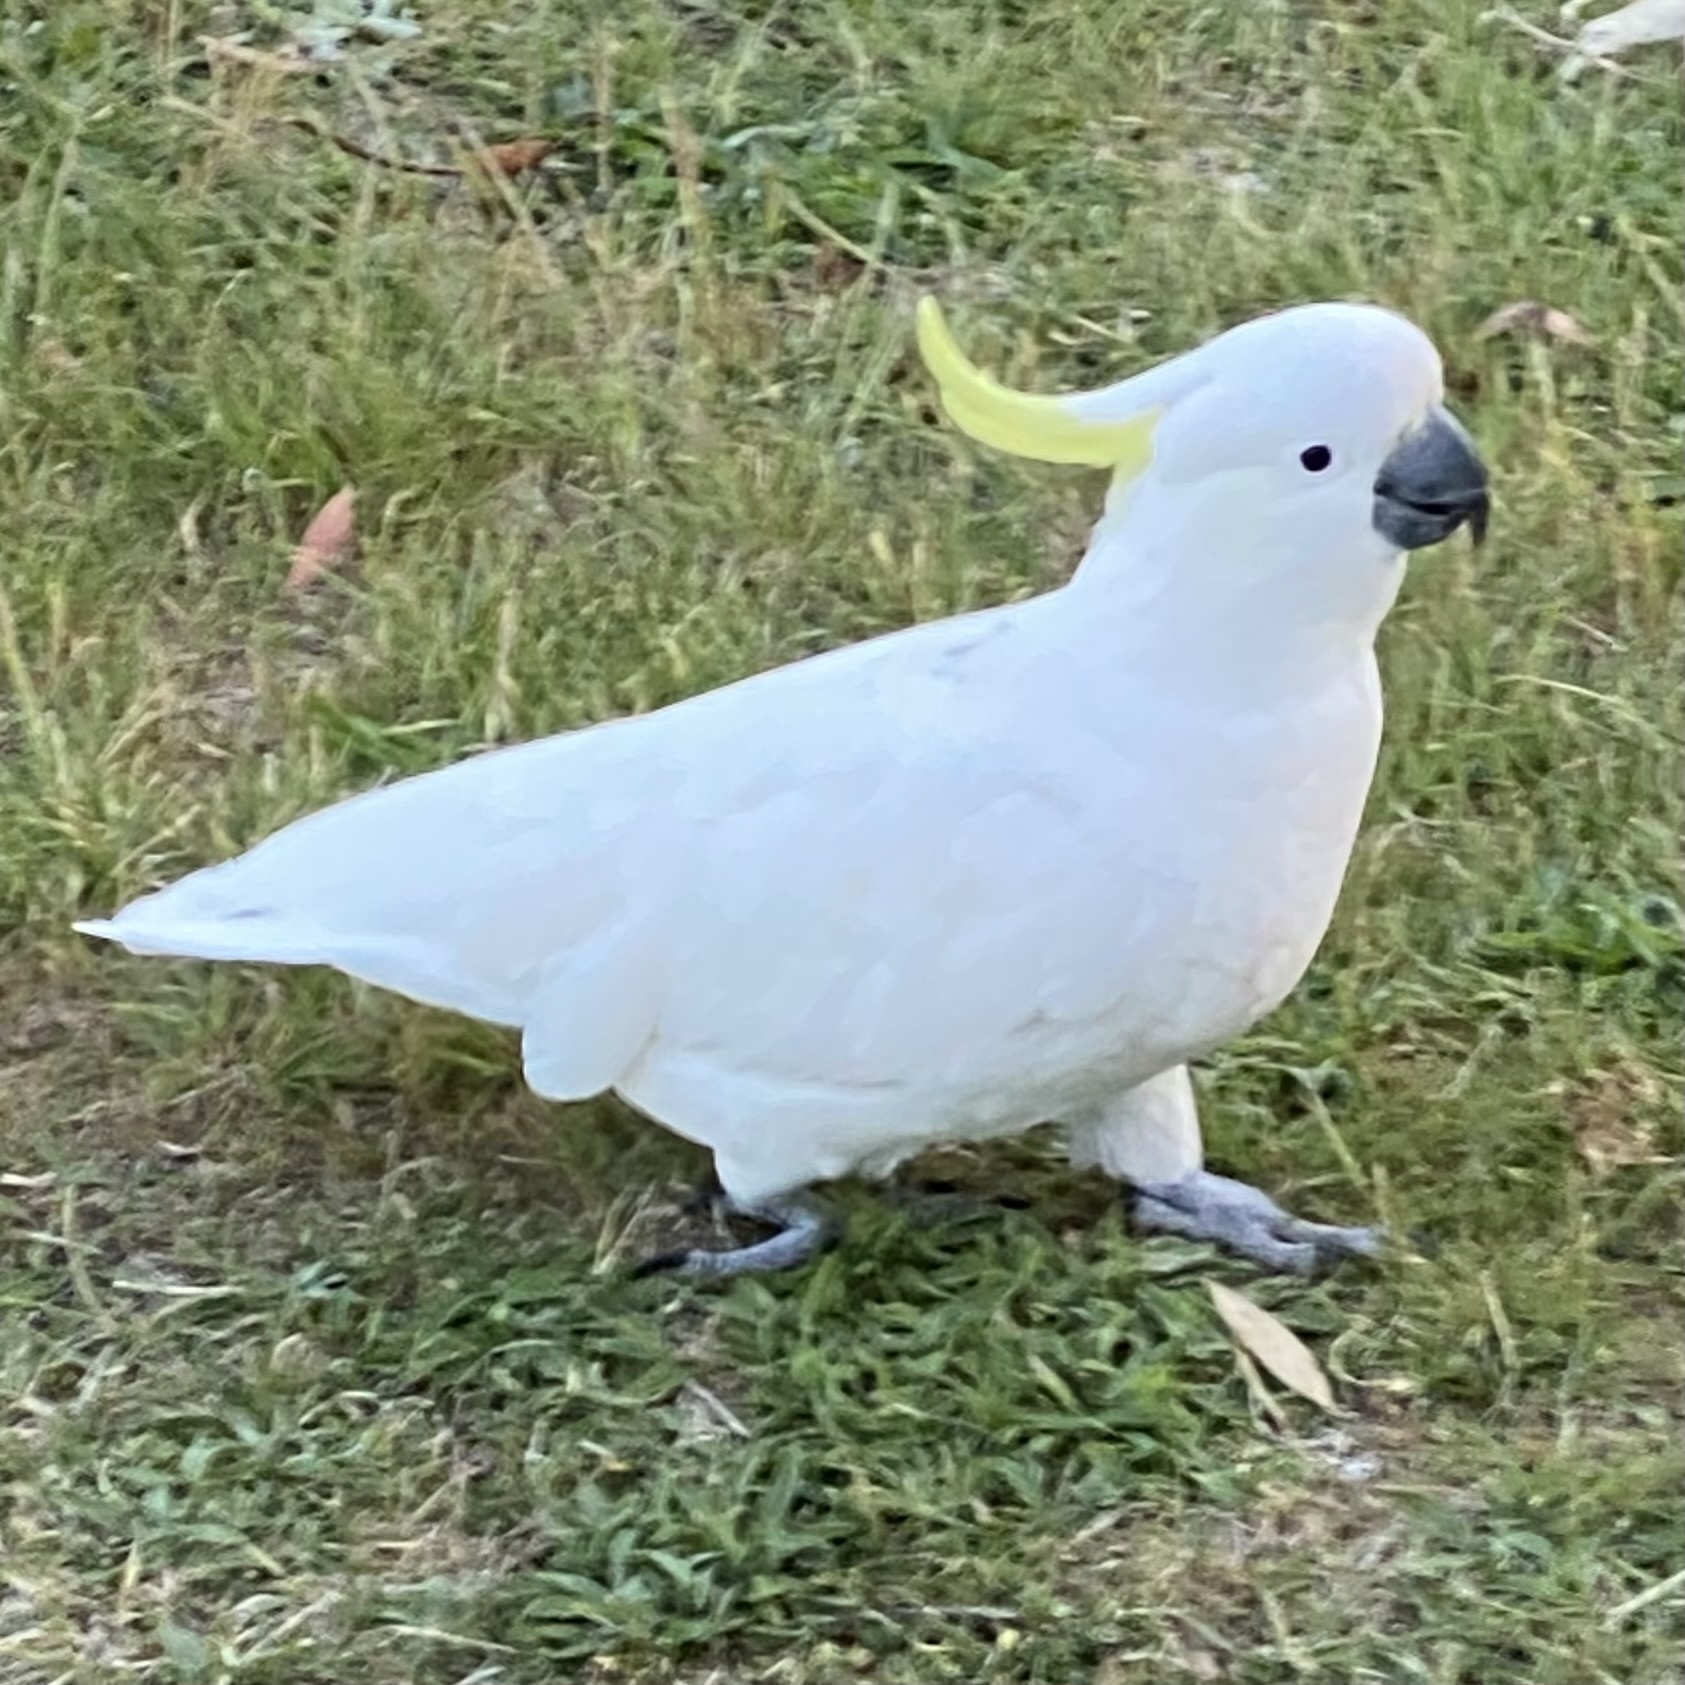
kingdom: Animalia
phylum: Chordata
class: Aves
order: Psittaciformes
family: Psittacidae
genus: Cacatua
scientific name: Cacatua galerita
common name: Sulphur-crested cockatoo
